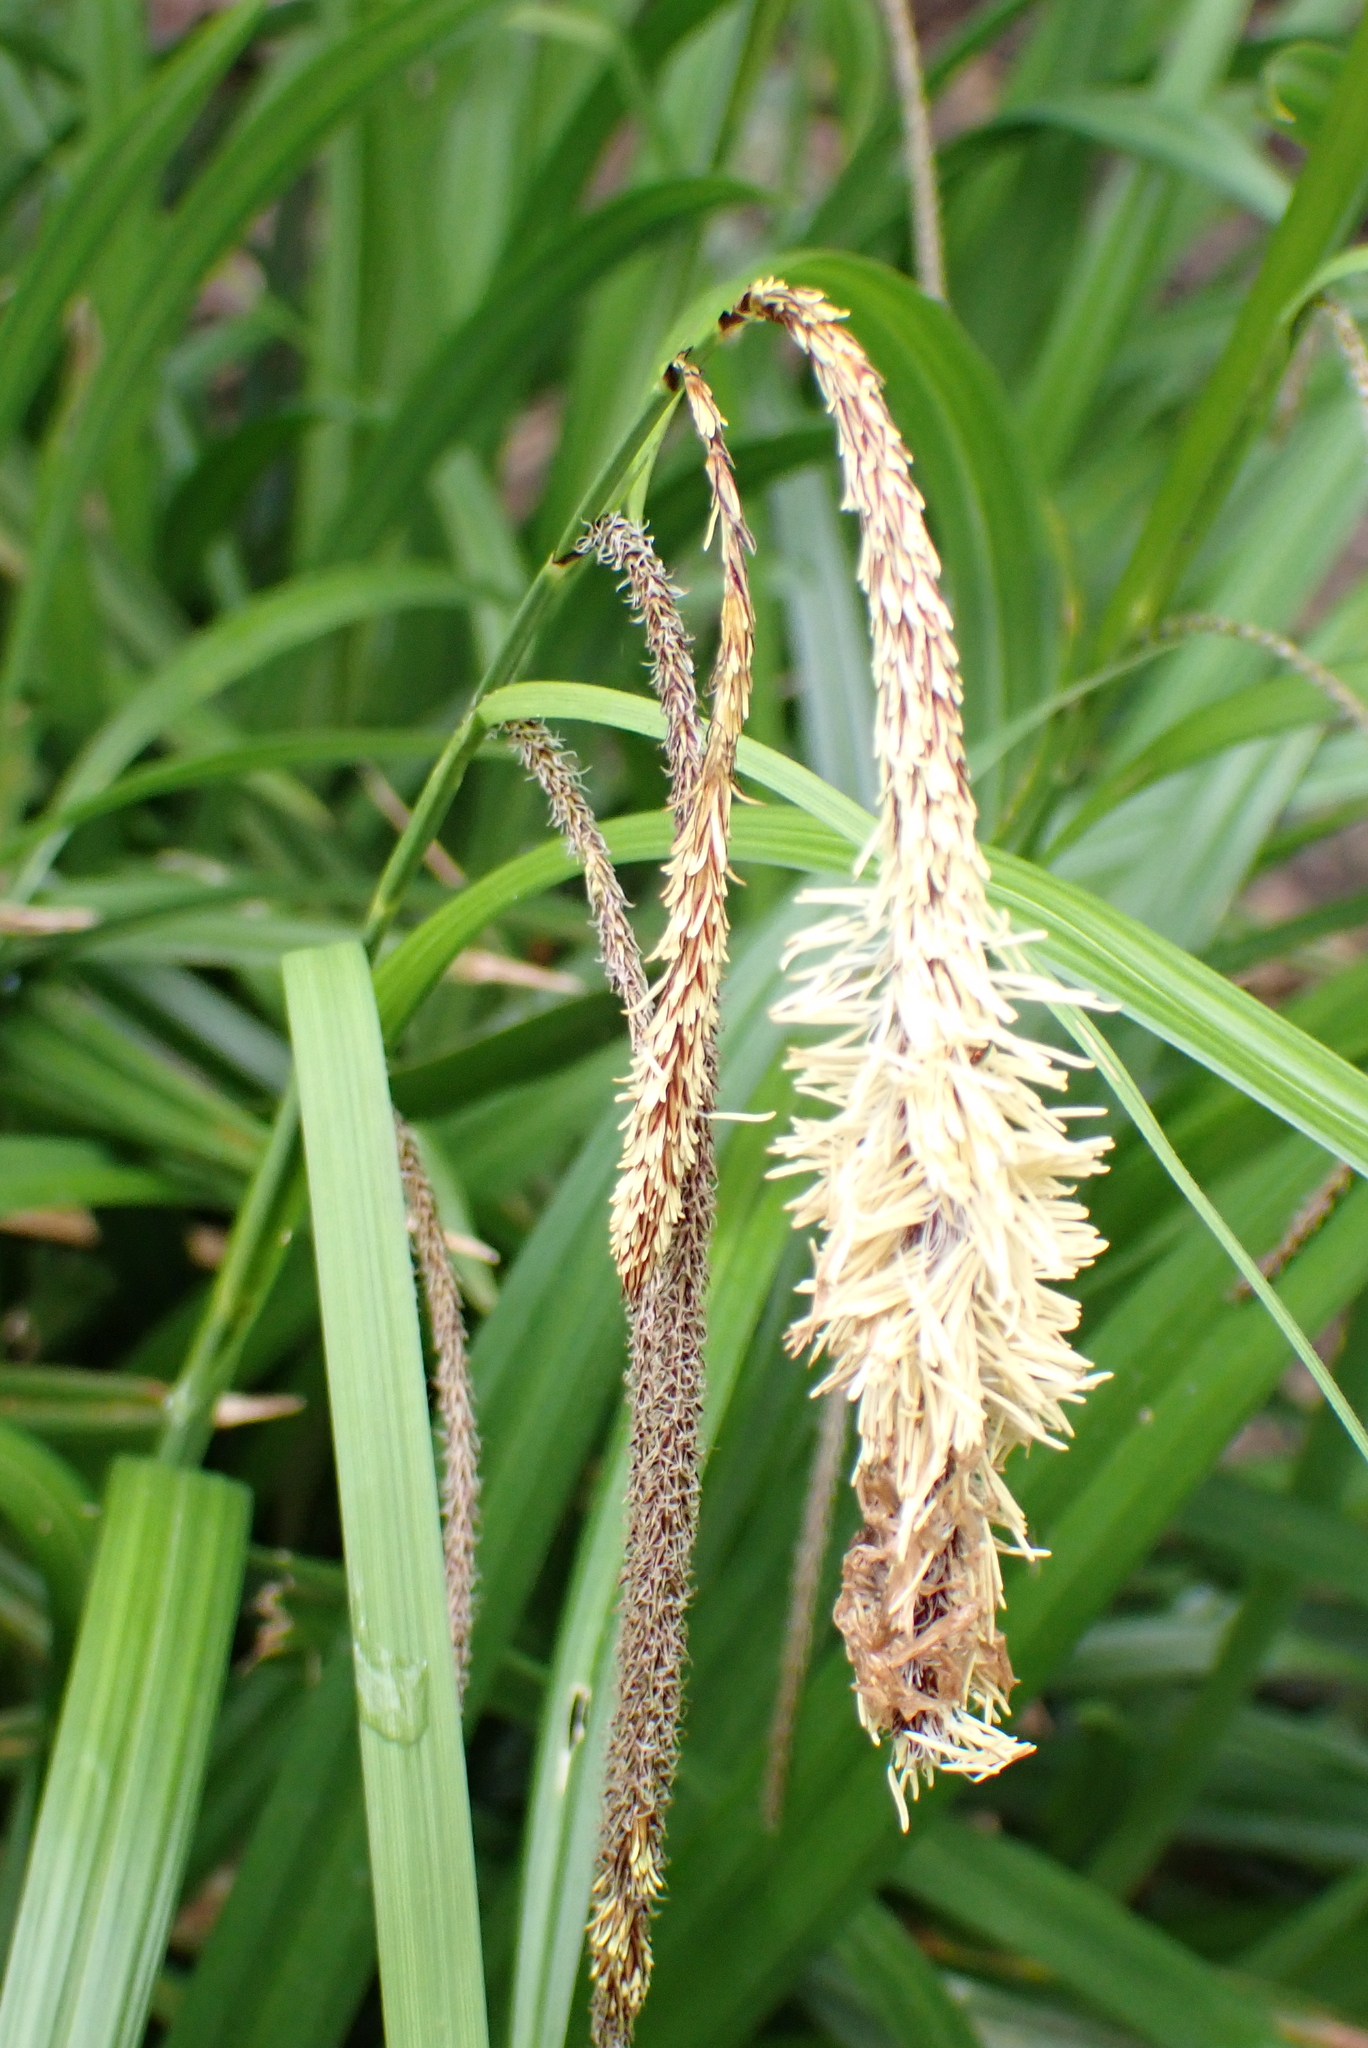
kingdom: Plantae
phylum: Tracheophyta
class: Liliopsida
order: Poales
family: Cyperaceae
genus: Carex
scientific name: Carex pendula
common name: Pendulous sedge
